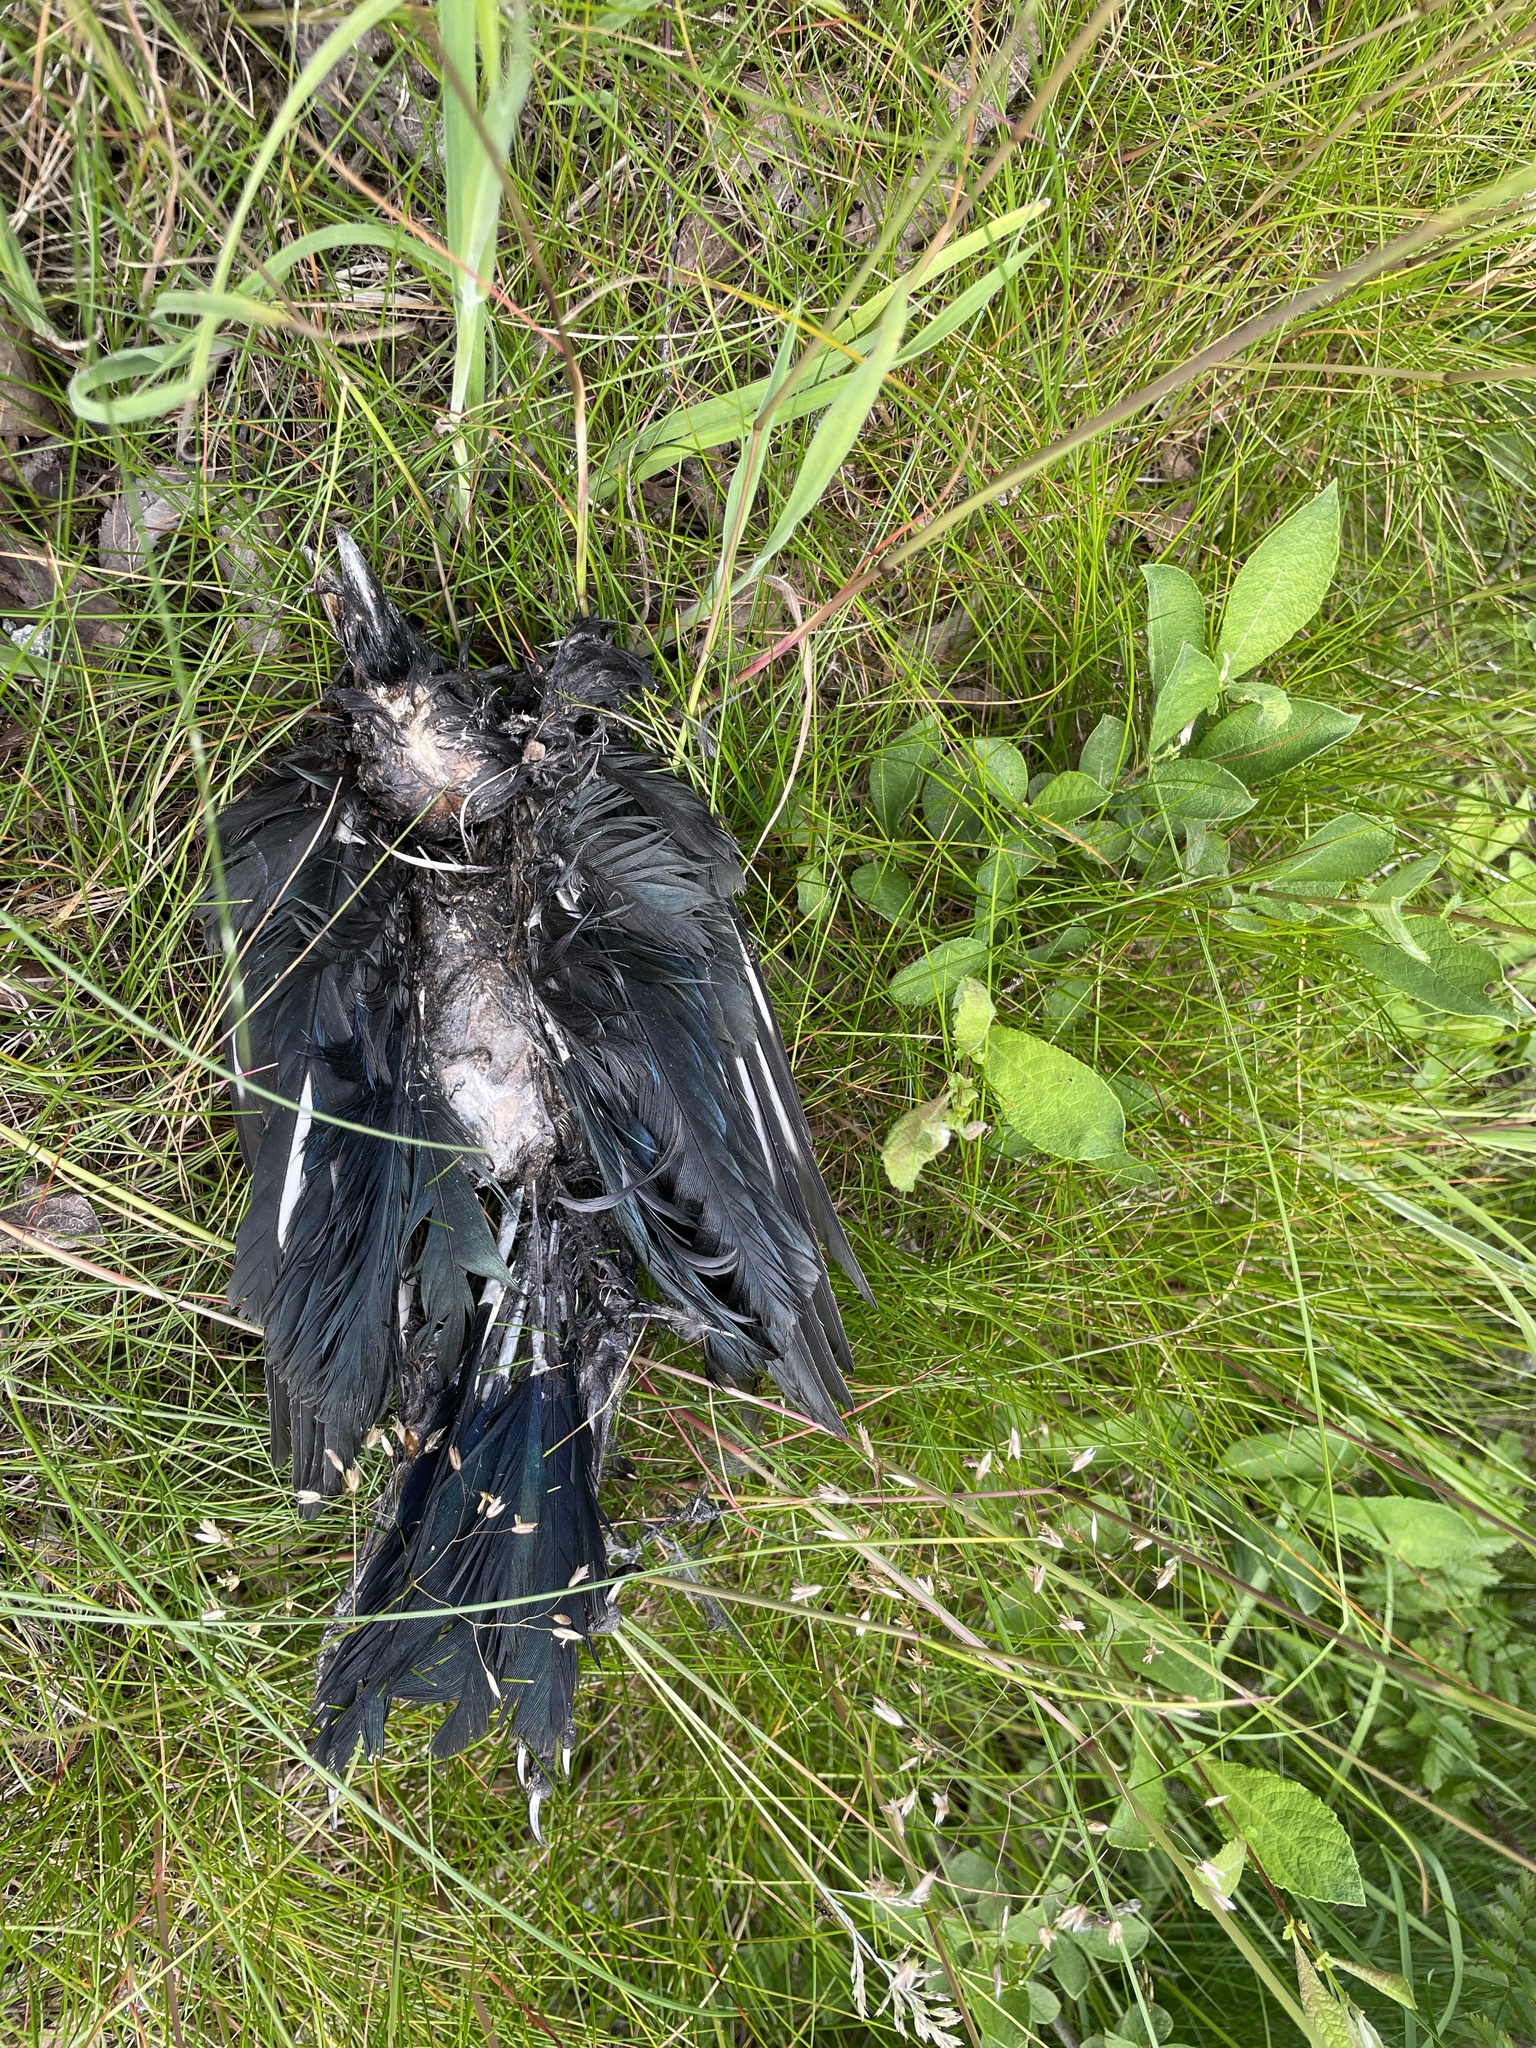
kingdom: Animalia
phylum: Chordata
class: Aves
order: Passeriformes
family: Corvidae
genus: Pica
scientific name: Pica pica
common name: Eurasian magpie
